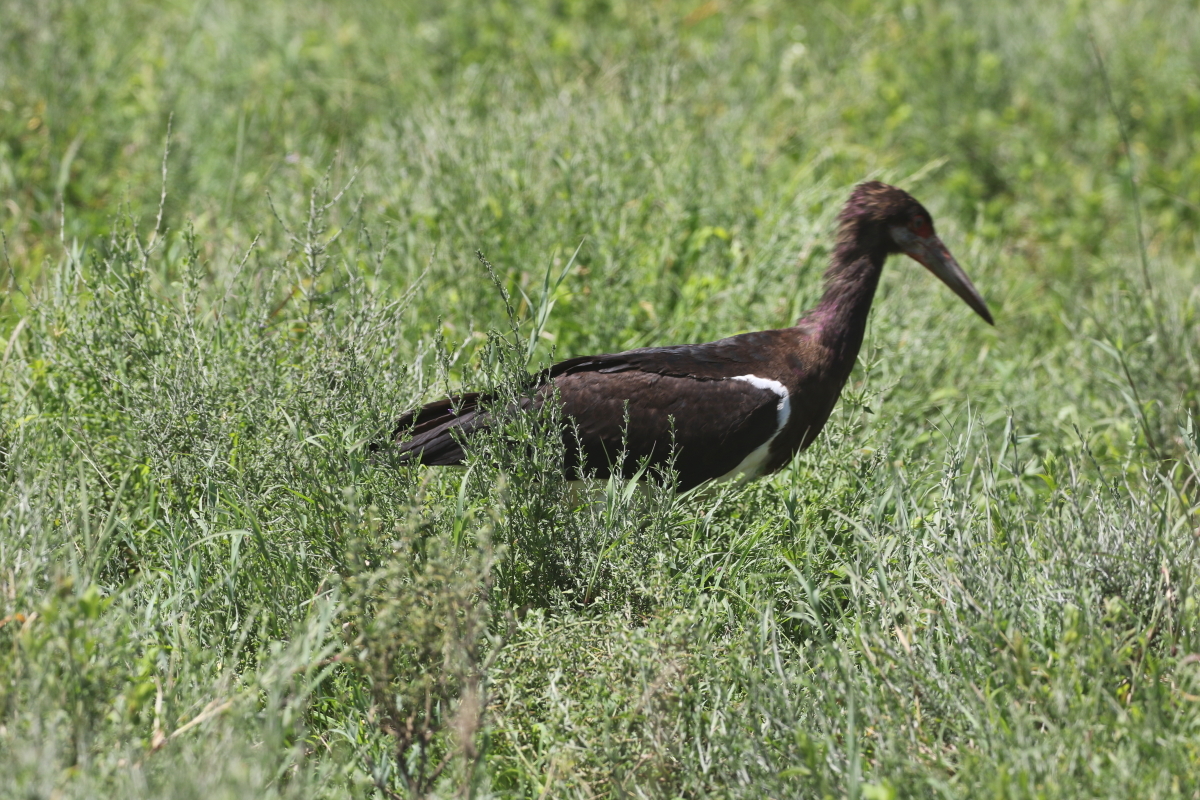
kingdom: Animalia
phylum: Chordata
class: Aves
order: Ciconiiformes
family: Ciconiidae
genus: Ciconia
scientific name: Ciconia abdimii
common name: Abdim's stork
